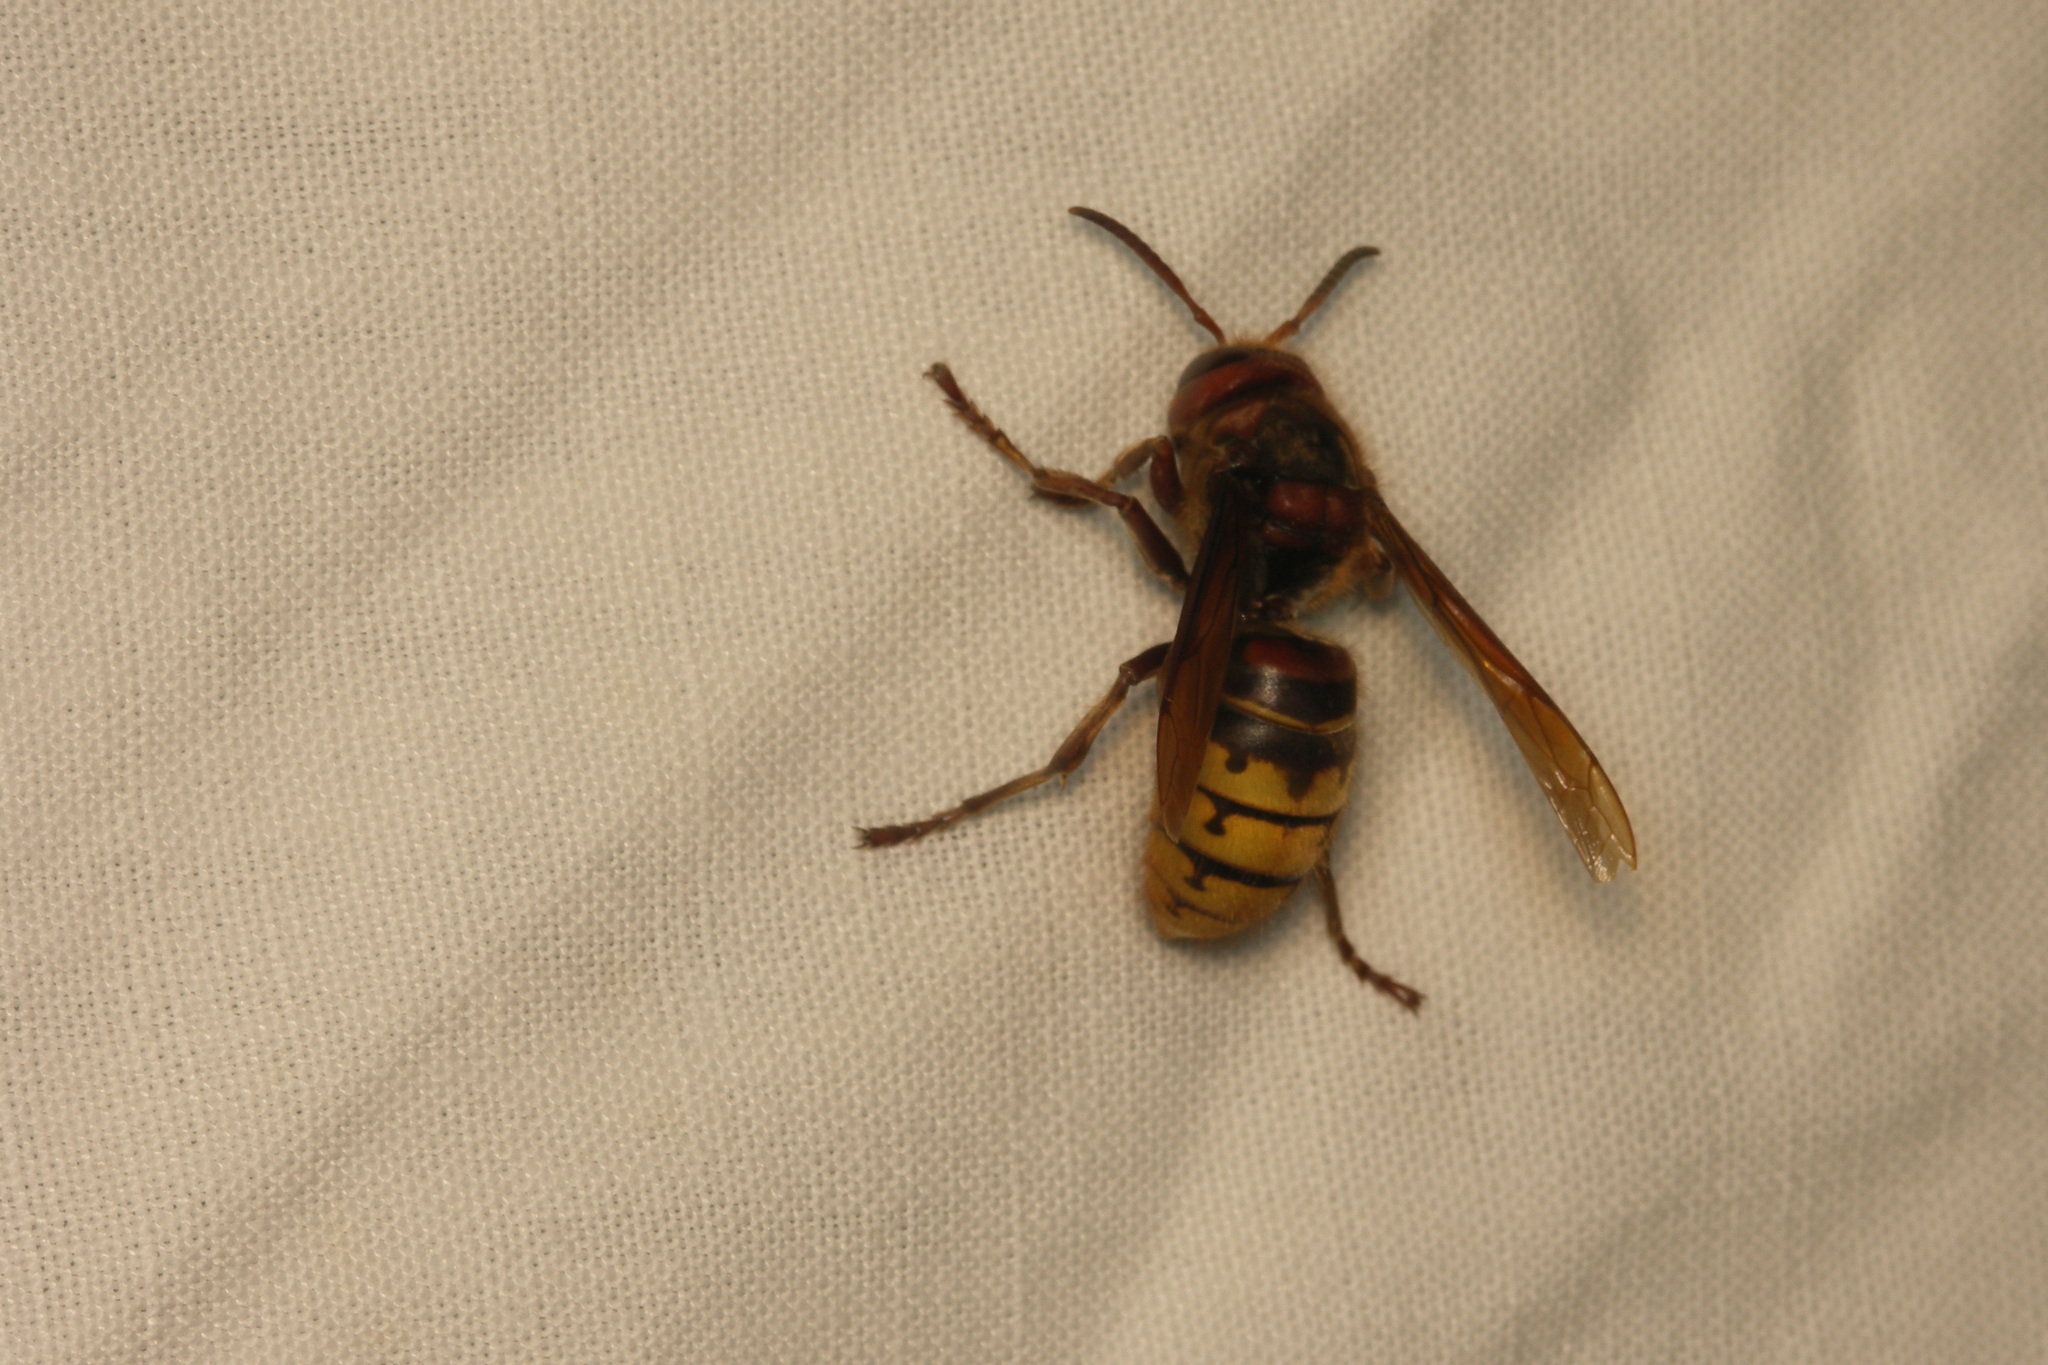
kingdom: Animalia
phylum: Arthropoda
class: Insecta
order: Hymenoptera
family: Vespidae
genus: Vespa
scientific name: Vespa crabro
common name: Hornet
